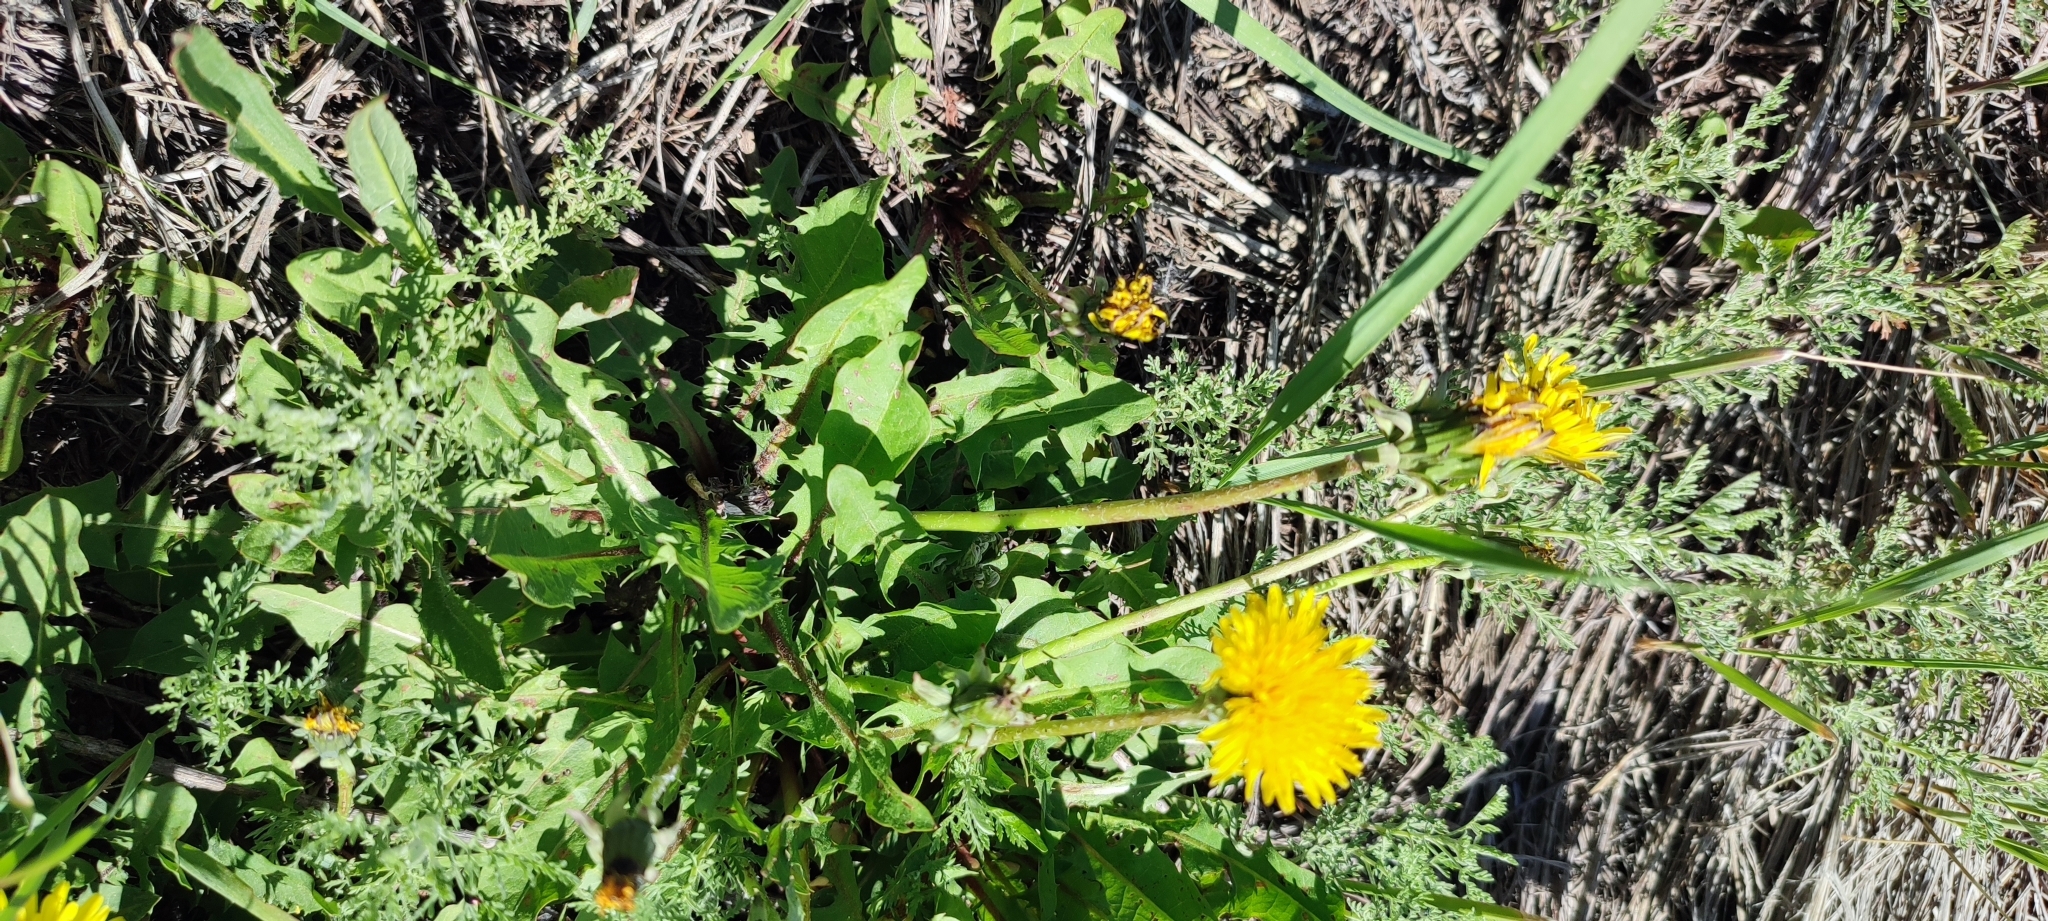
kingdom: Plantae
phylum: Tracheophyta
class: Magnoliopsida
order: Asterales
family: Asteraceae
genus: Taraxacum
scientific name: Taraxacum officinale
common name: Common dandelion
